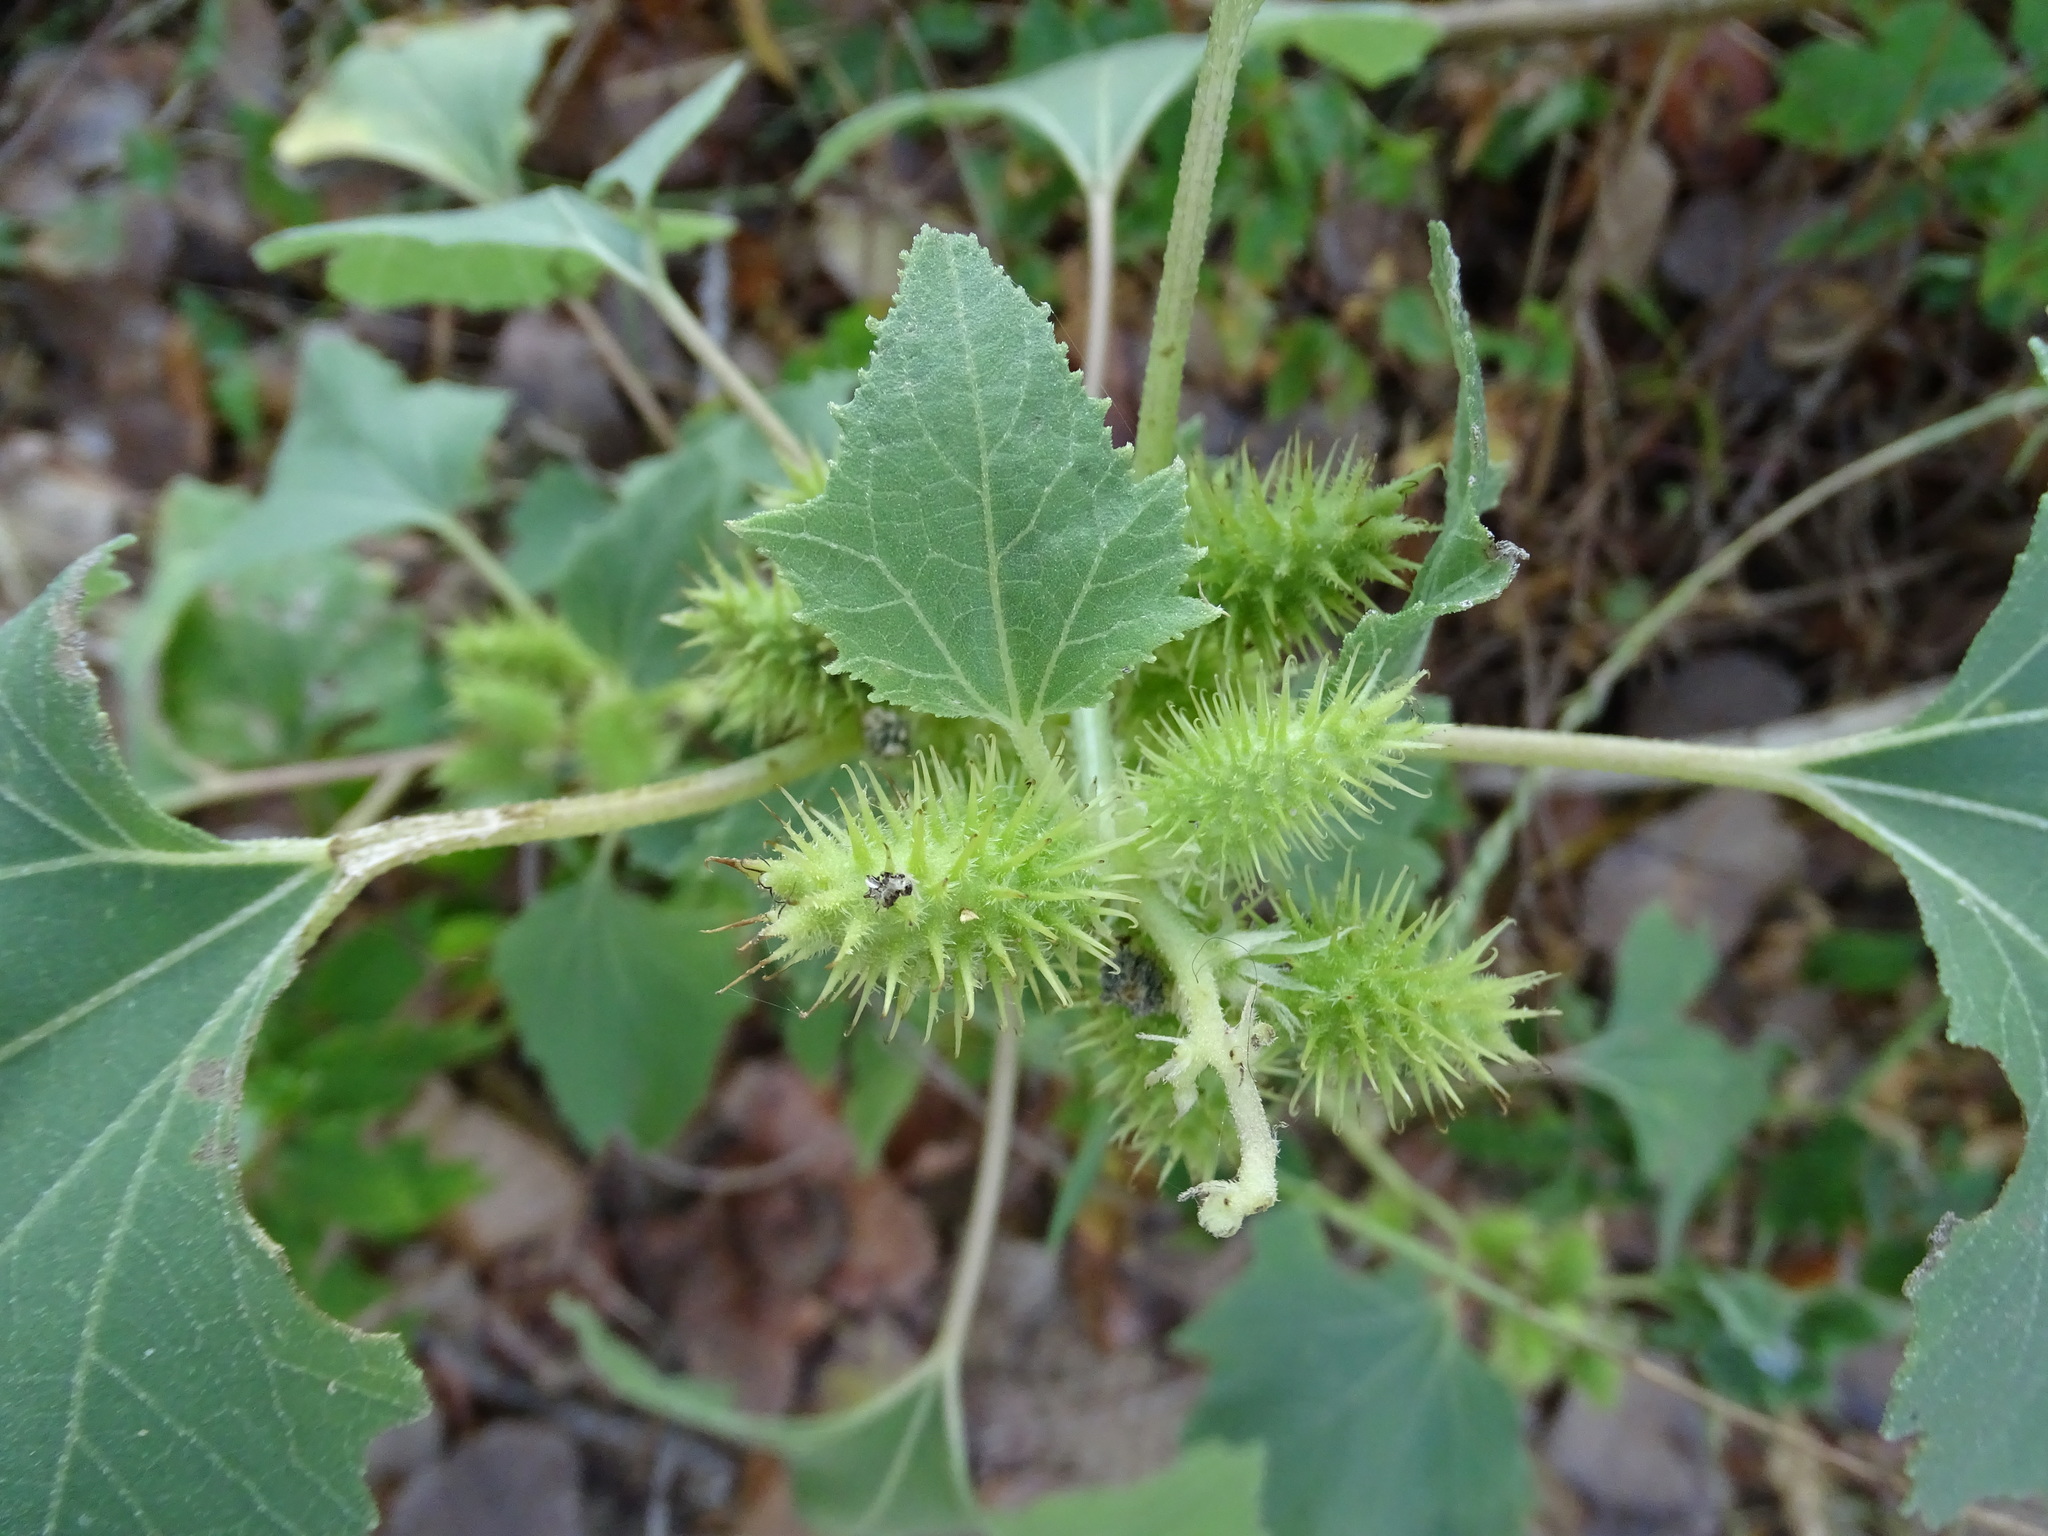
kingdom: Plantae
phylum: Tracheophyta
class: Magnoliopsida
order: Asterales
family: Asteraceae
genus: Xanthium
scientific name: Xanthium strumarium
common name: Rough cocklebur
